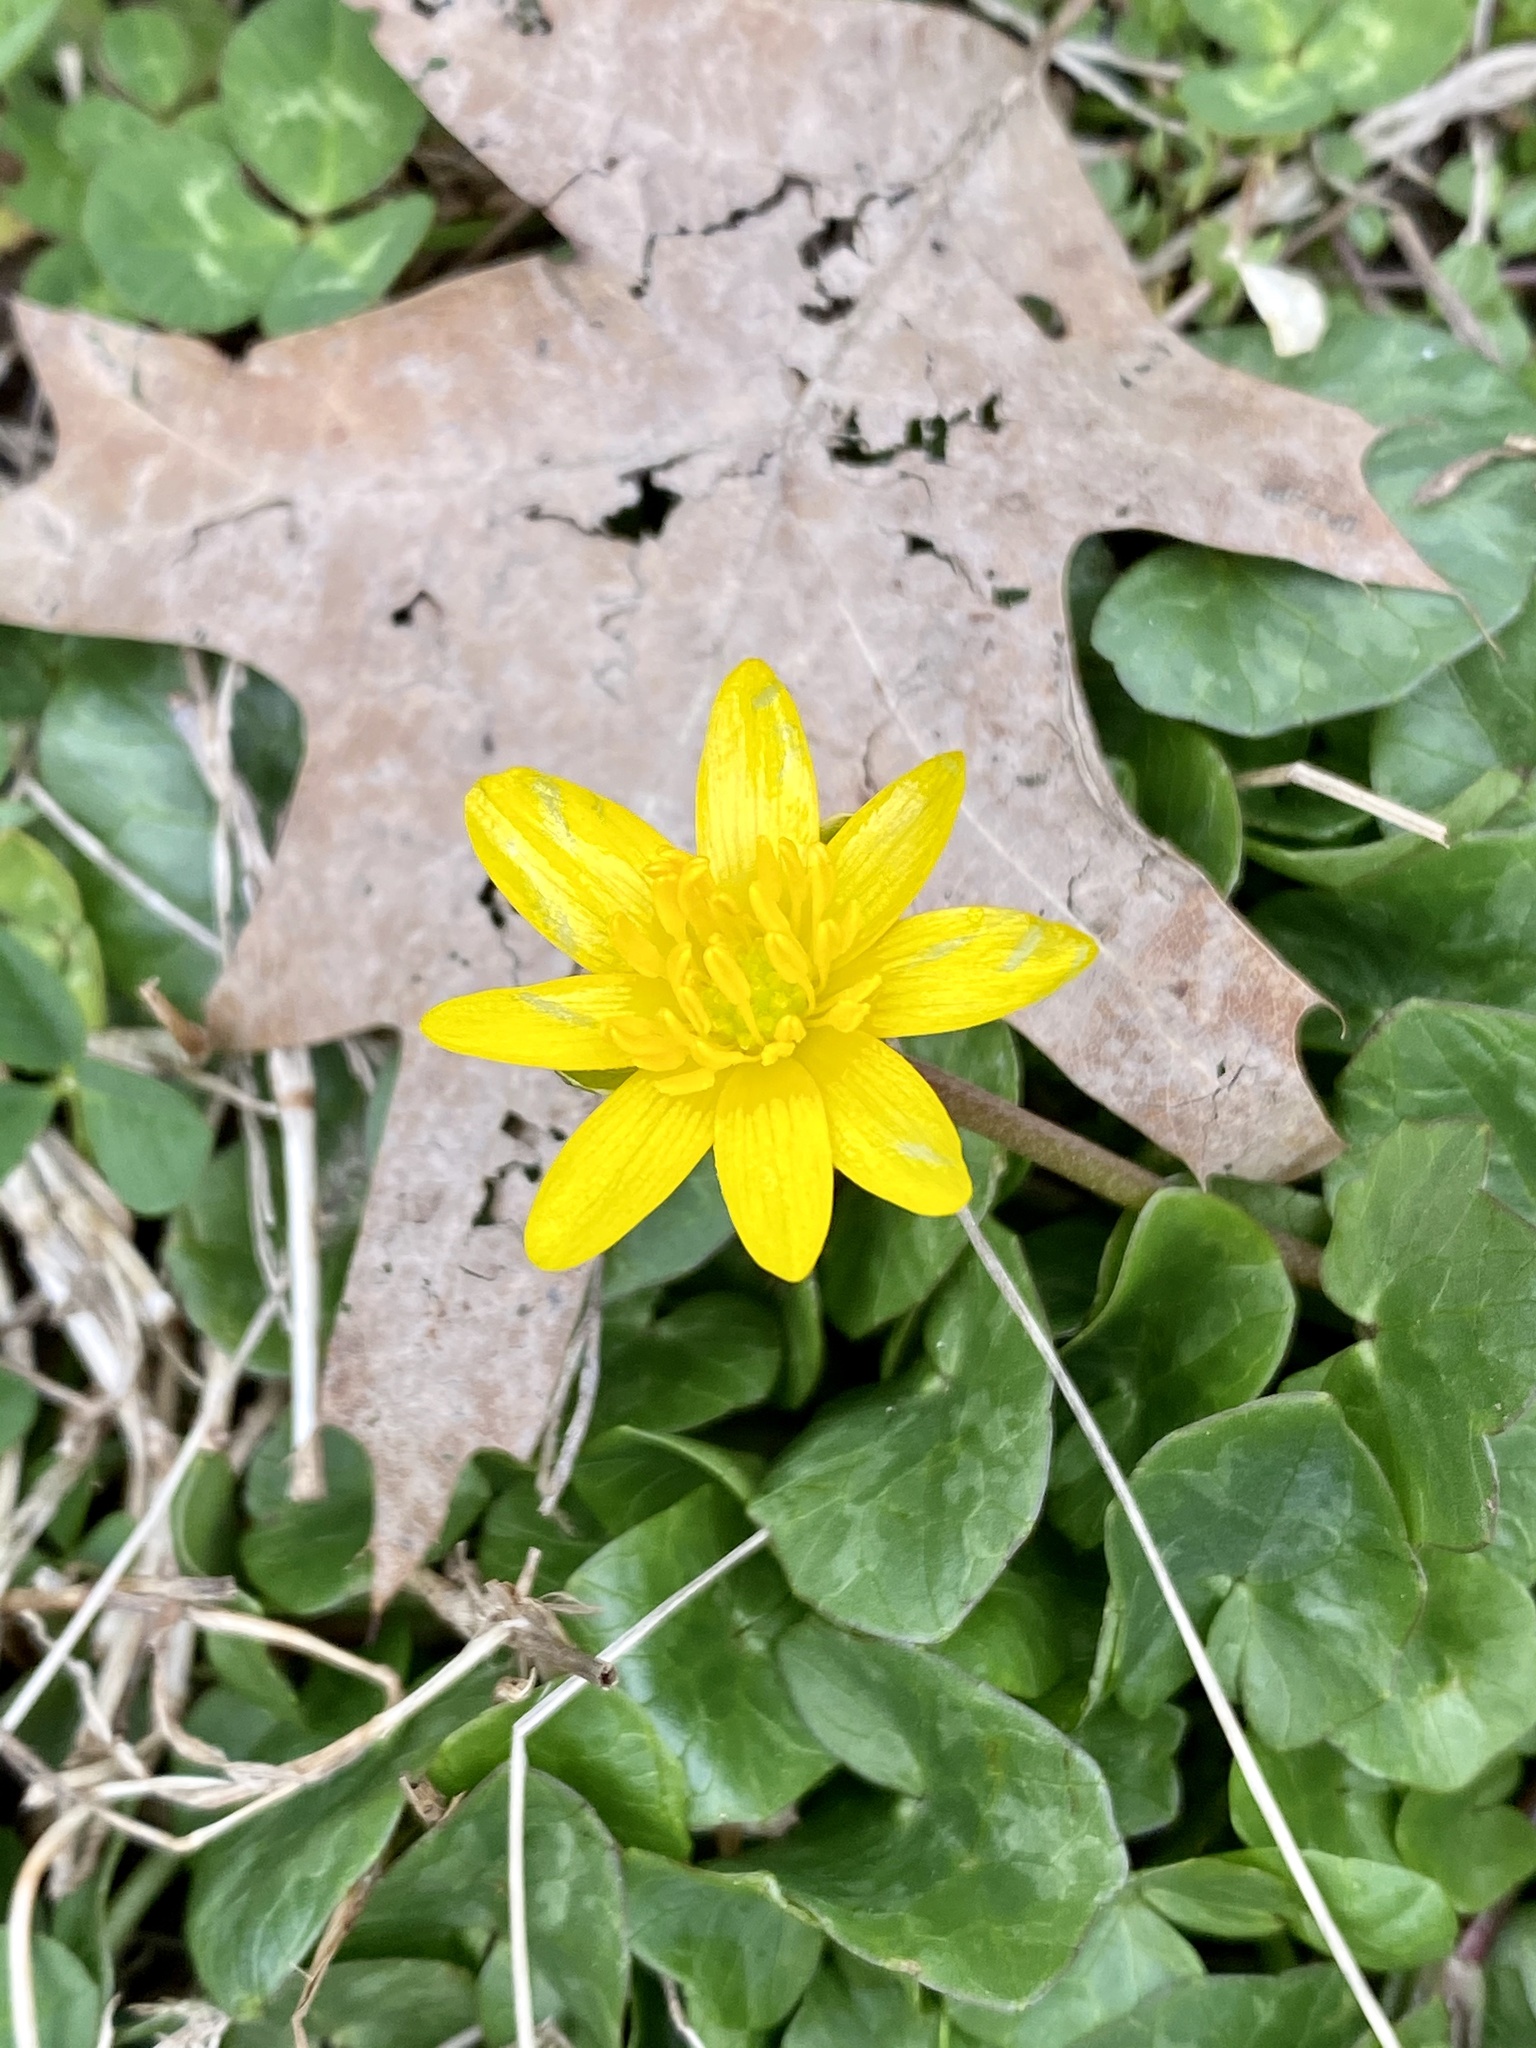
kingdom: Plantae
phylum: Tracheophyta
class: Magnoliopsida
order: Ranunculales
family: Ranunculaceae
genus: Ficaria
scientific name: Ficaria verna
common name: Lesser celandine
